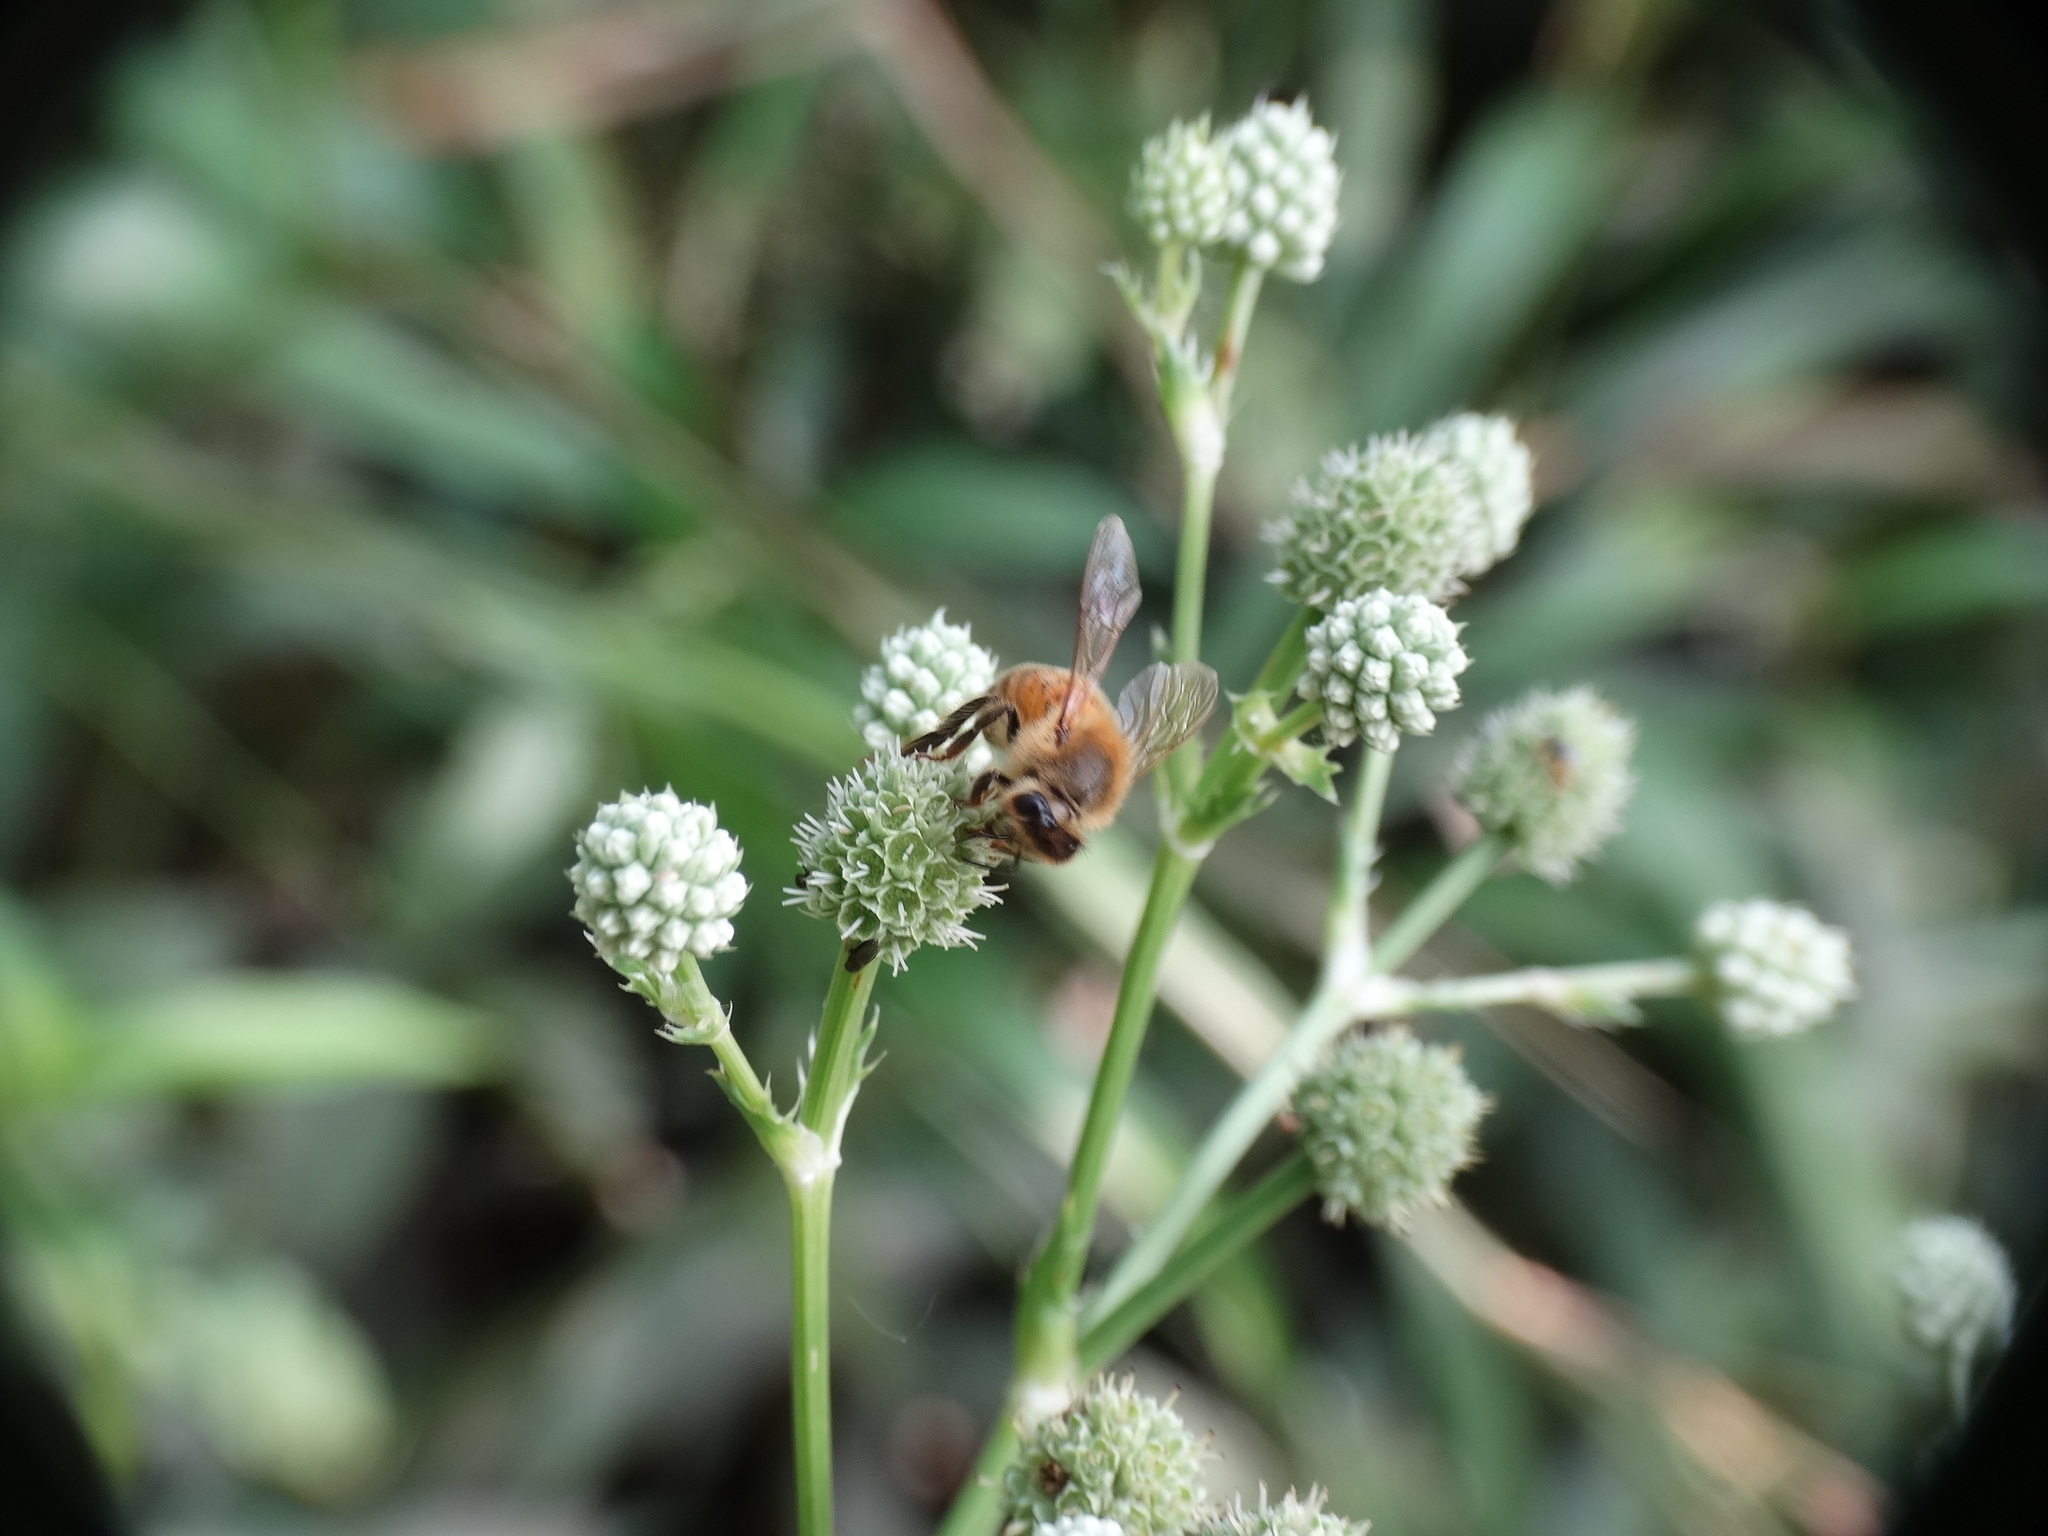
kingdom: Animalia
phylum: Arthropoda
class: Insecta
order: Hymenoptera
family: Apidae
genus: Apis
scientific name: Apis mellifera
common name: Honey bee
